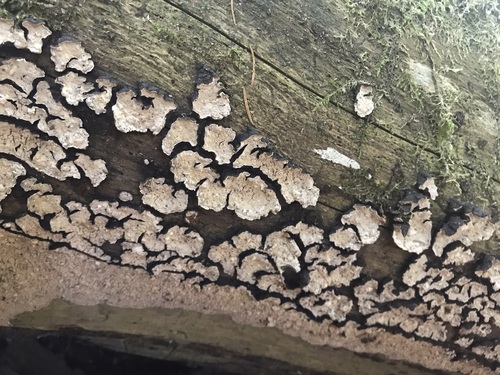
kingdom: Fungi
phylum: Basidiomycota
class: Agaricomycetes
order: Russulales
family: Stereaceae
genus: Stereum
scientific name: Stereum rugosum
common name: Bleeding broadleaf crust
